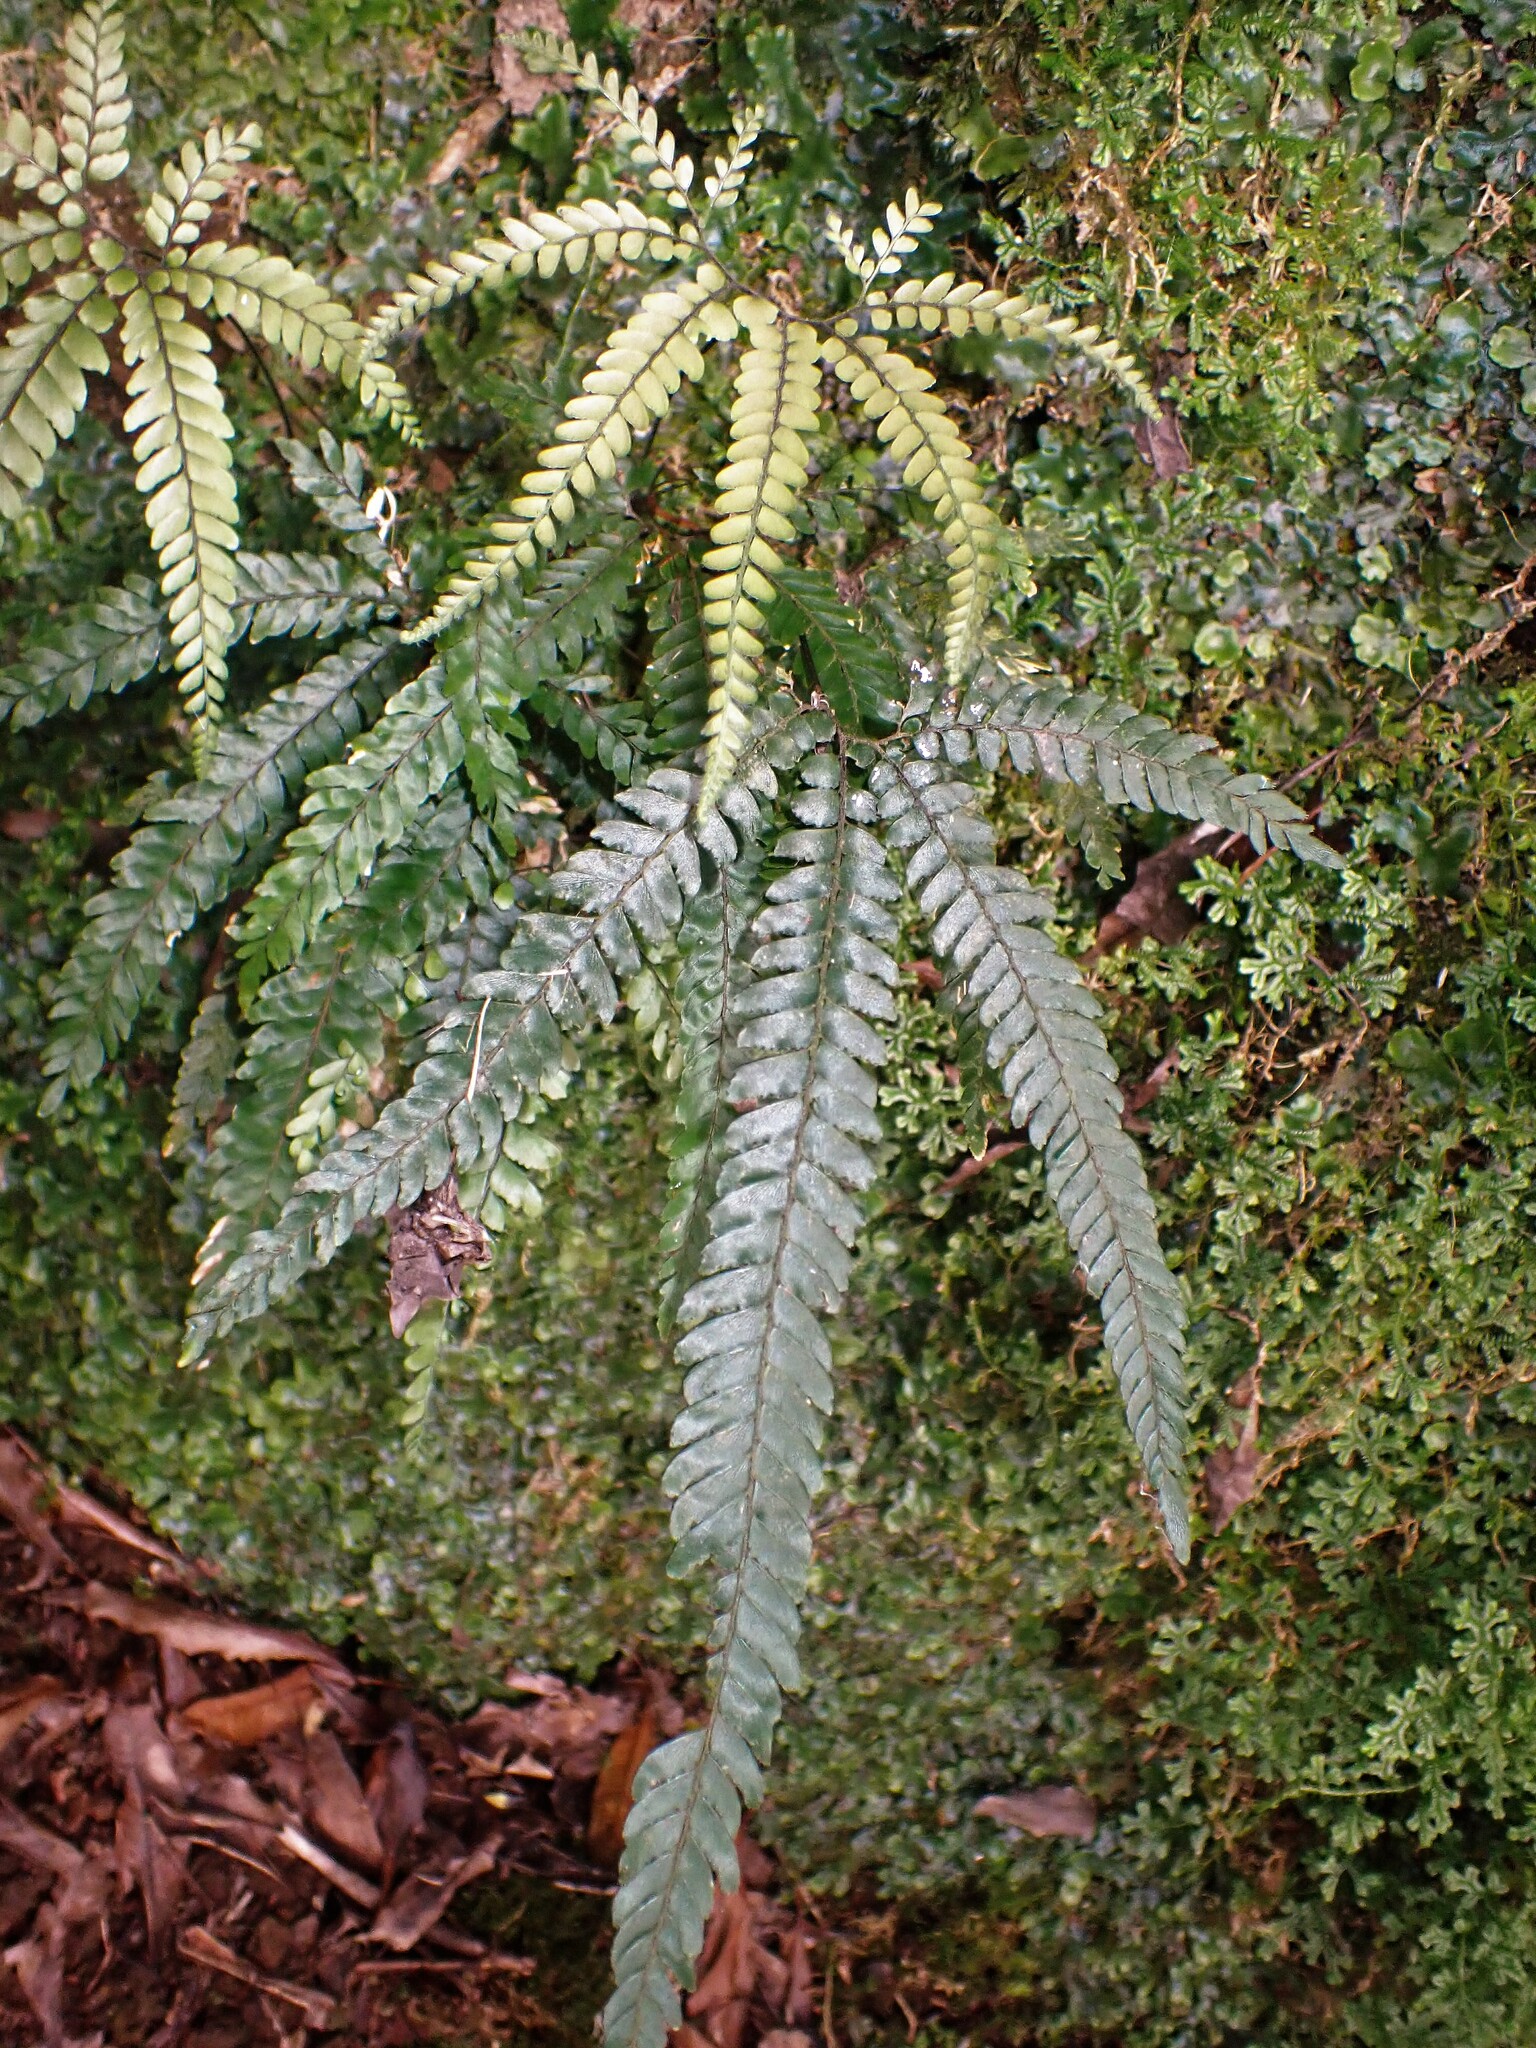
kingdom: Plantae
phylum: Tracheophyta
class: Polypodiopsida
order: Polypodiales
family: Pteridaceae
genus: Adiantum
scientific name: Adiantum hispidulum
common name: Rough maidenhair
